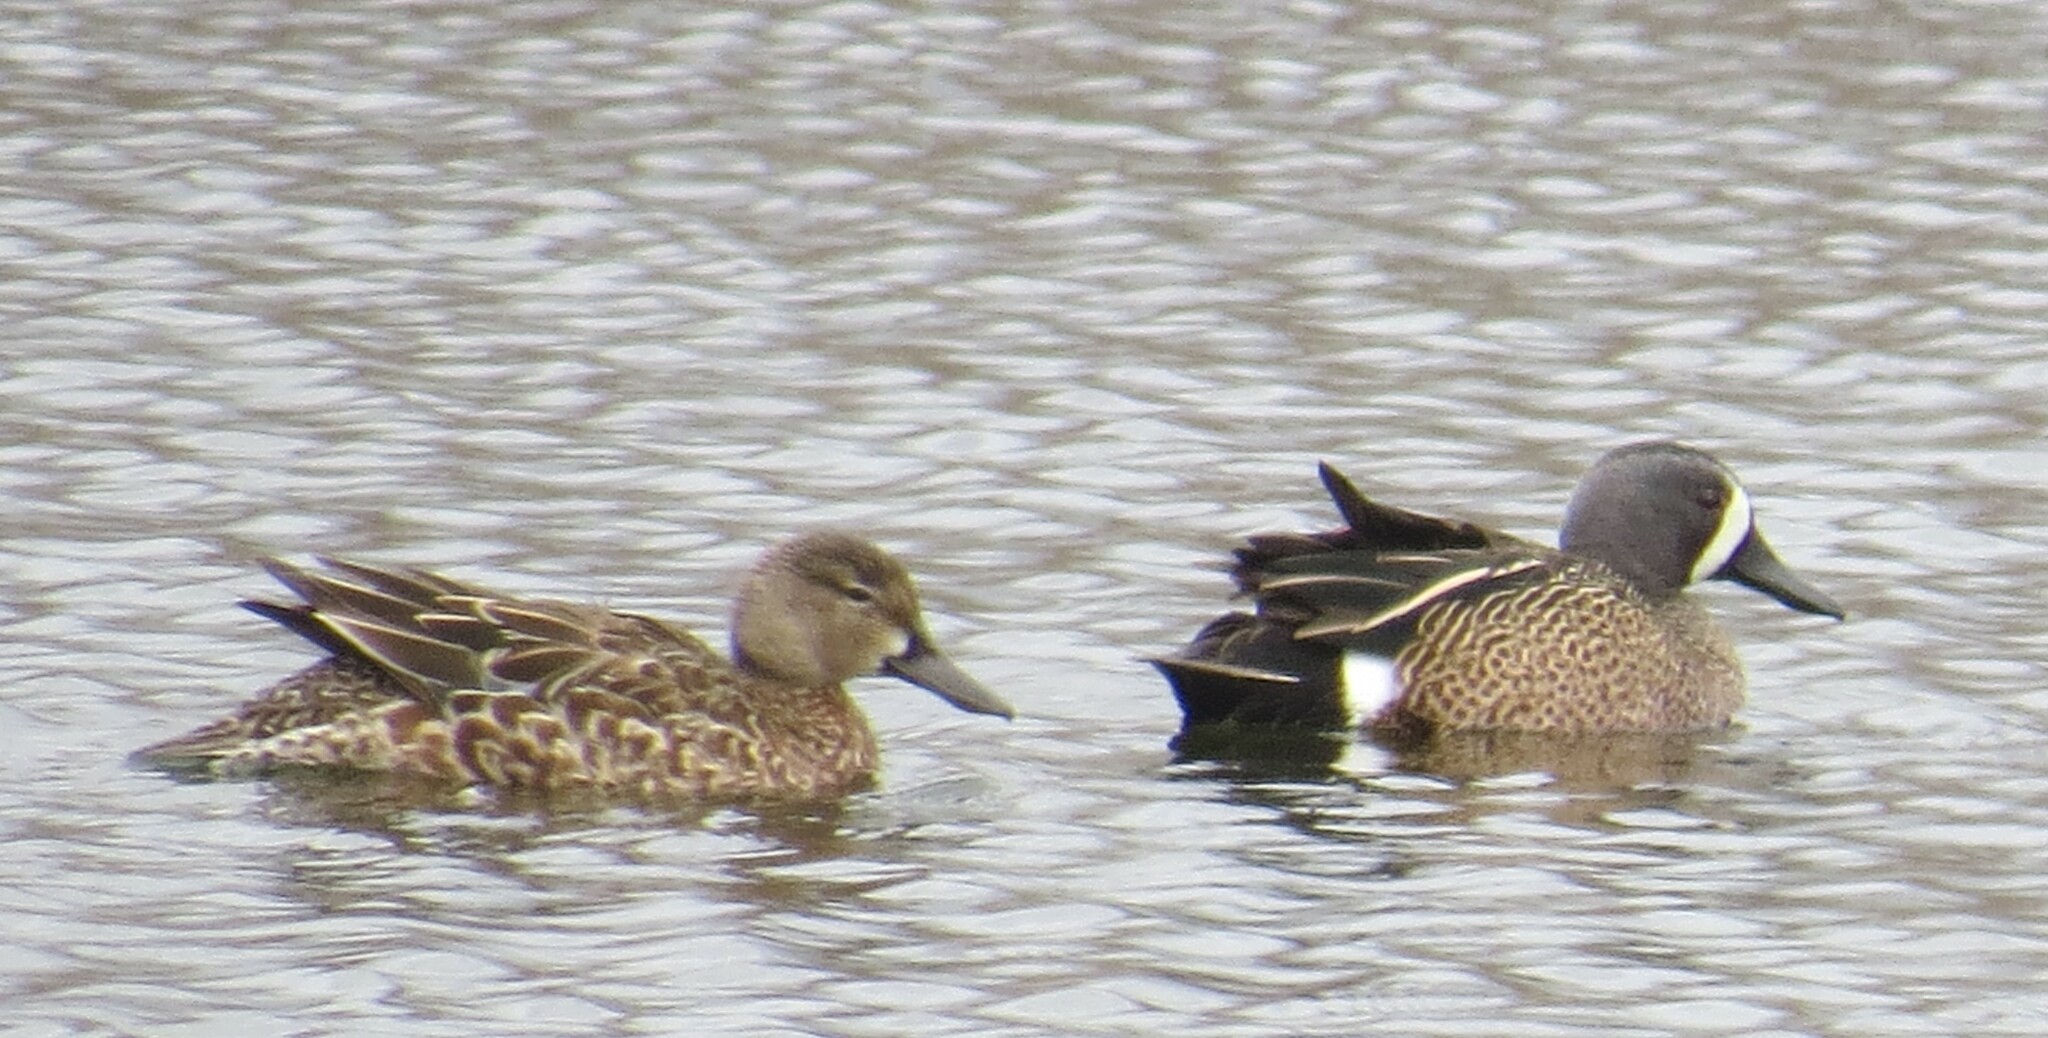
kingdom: Animalia
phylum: Chordata
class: Aves
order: Anseriformes
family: Anatidae
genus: Spatula
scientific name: Spatula discors
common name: Blue-winged teal
